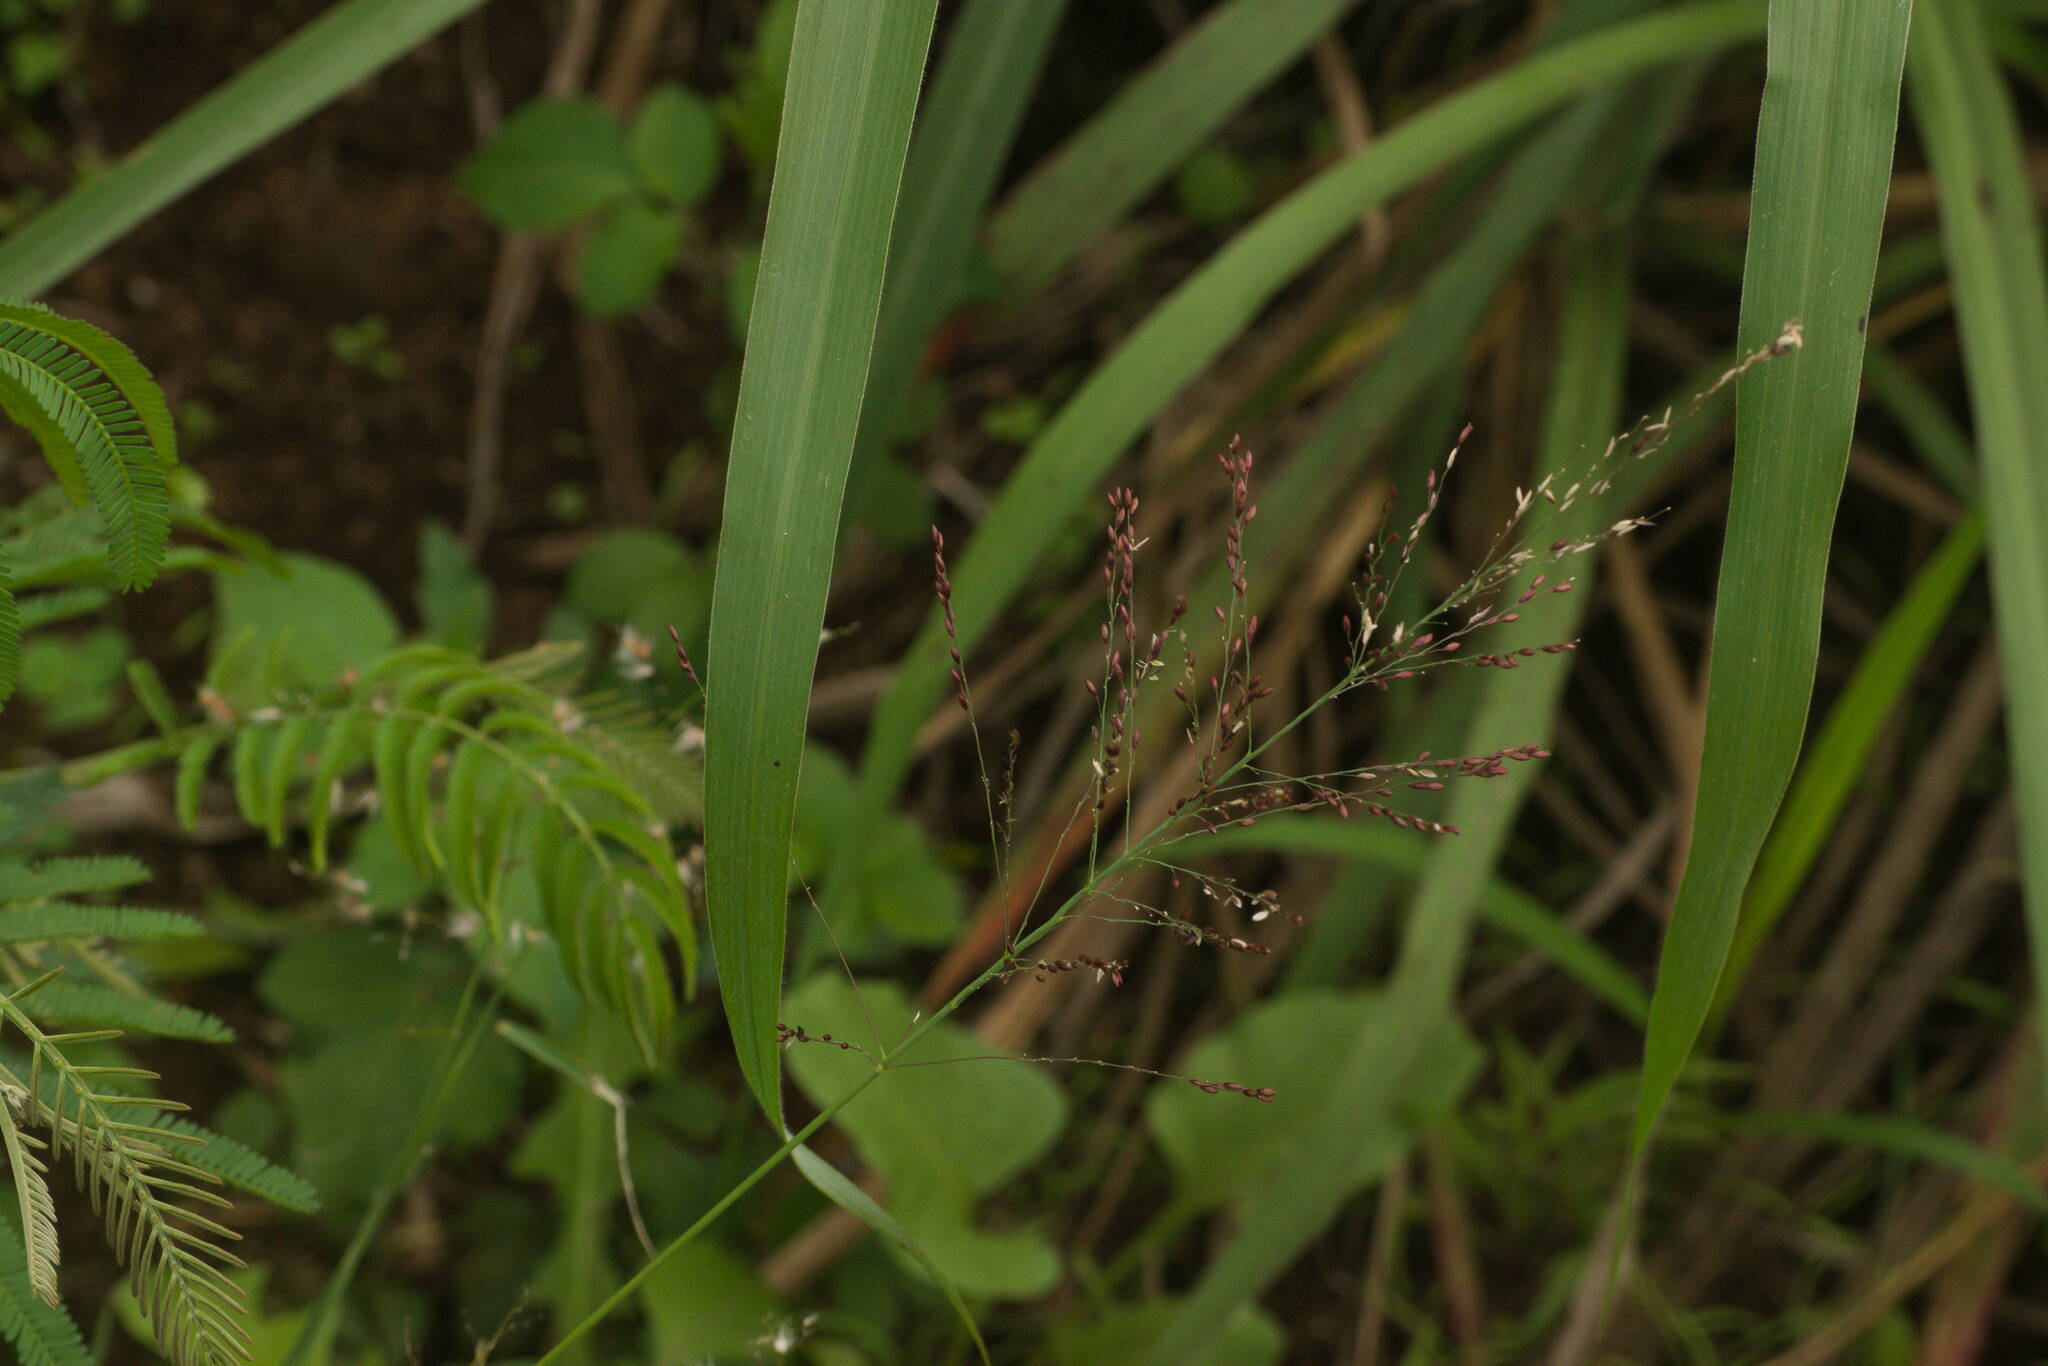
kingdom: Plantae
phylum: Tracheophyta
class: Liliopsida
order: Poales
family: Poaceae
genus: Megathyrsus
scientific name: Megathyrsus maximus
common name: Guineagrass
